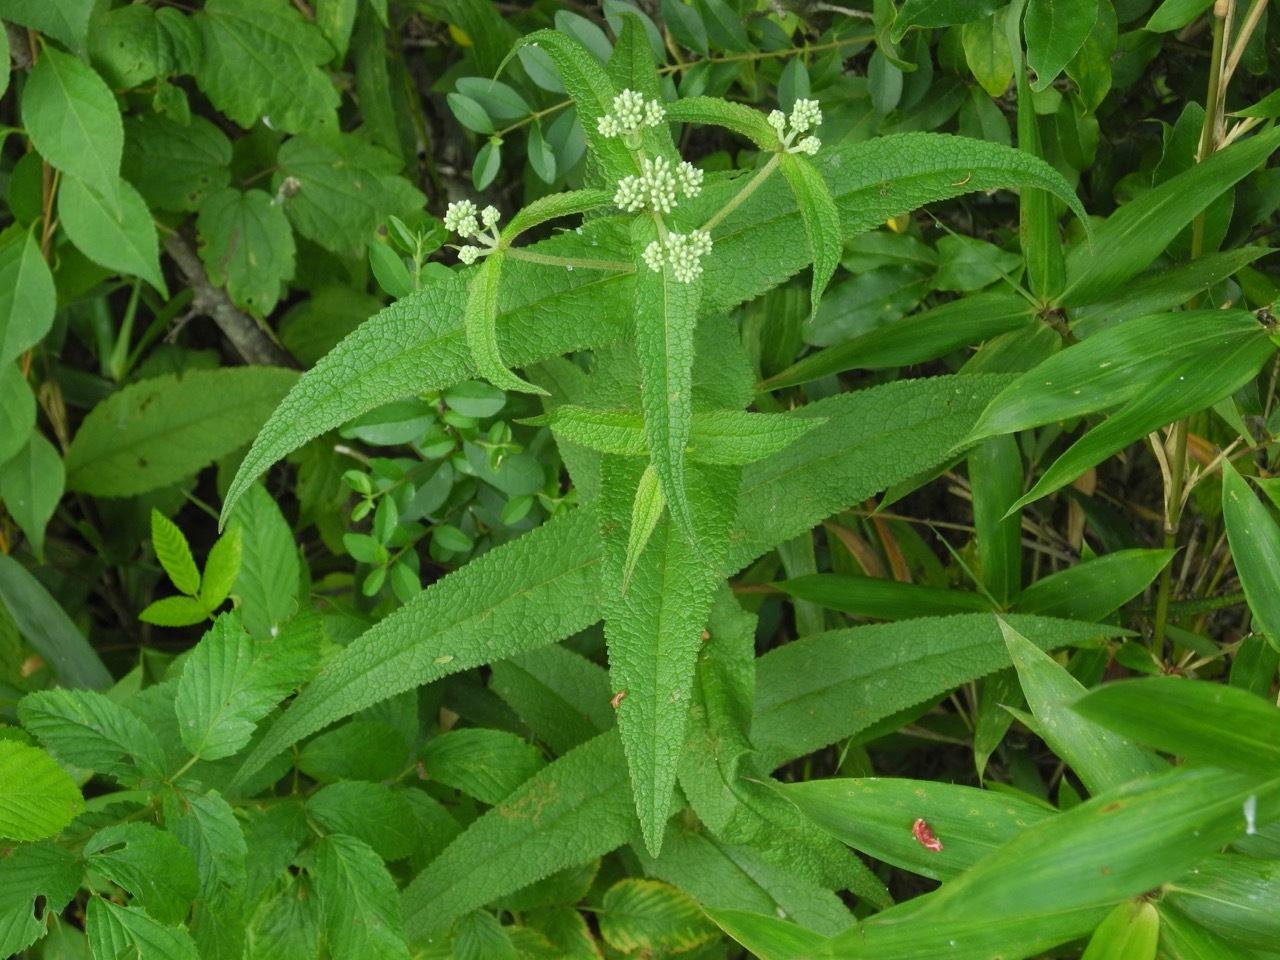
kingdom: Plantae
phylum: Tracheophyta
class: Magnoliopsida
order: Asterales
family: Asteraceae
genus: Eupatorium
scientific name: Eupatorium perfoliatum
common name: Boneset
